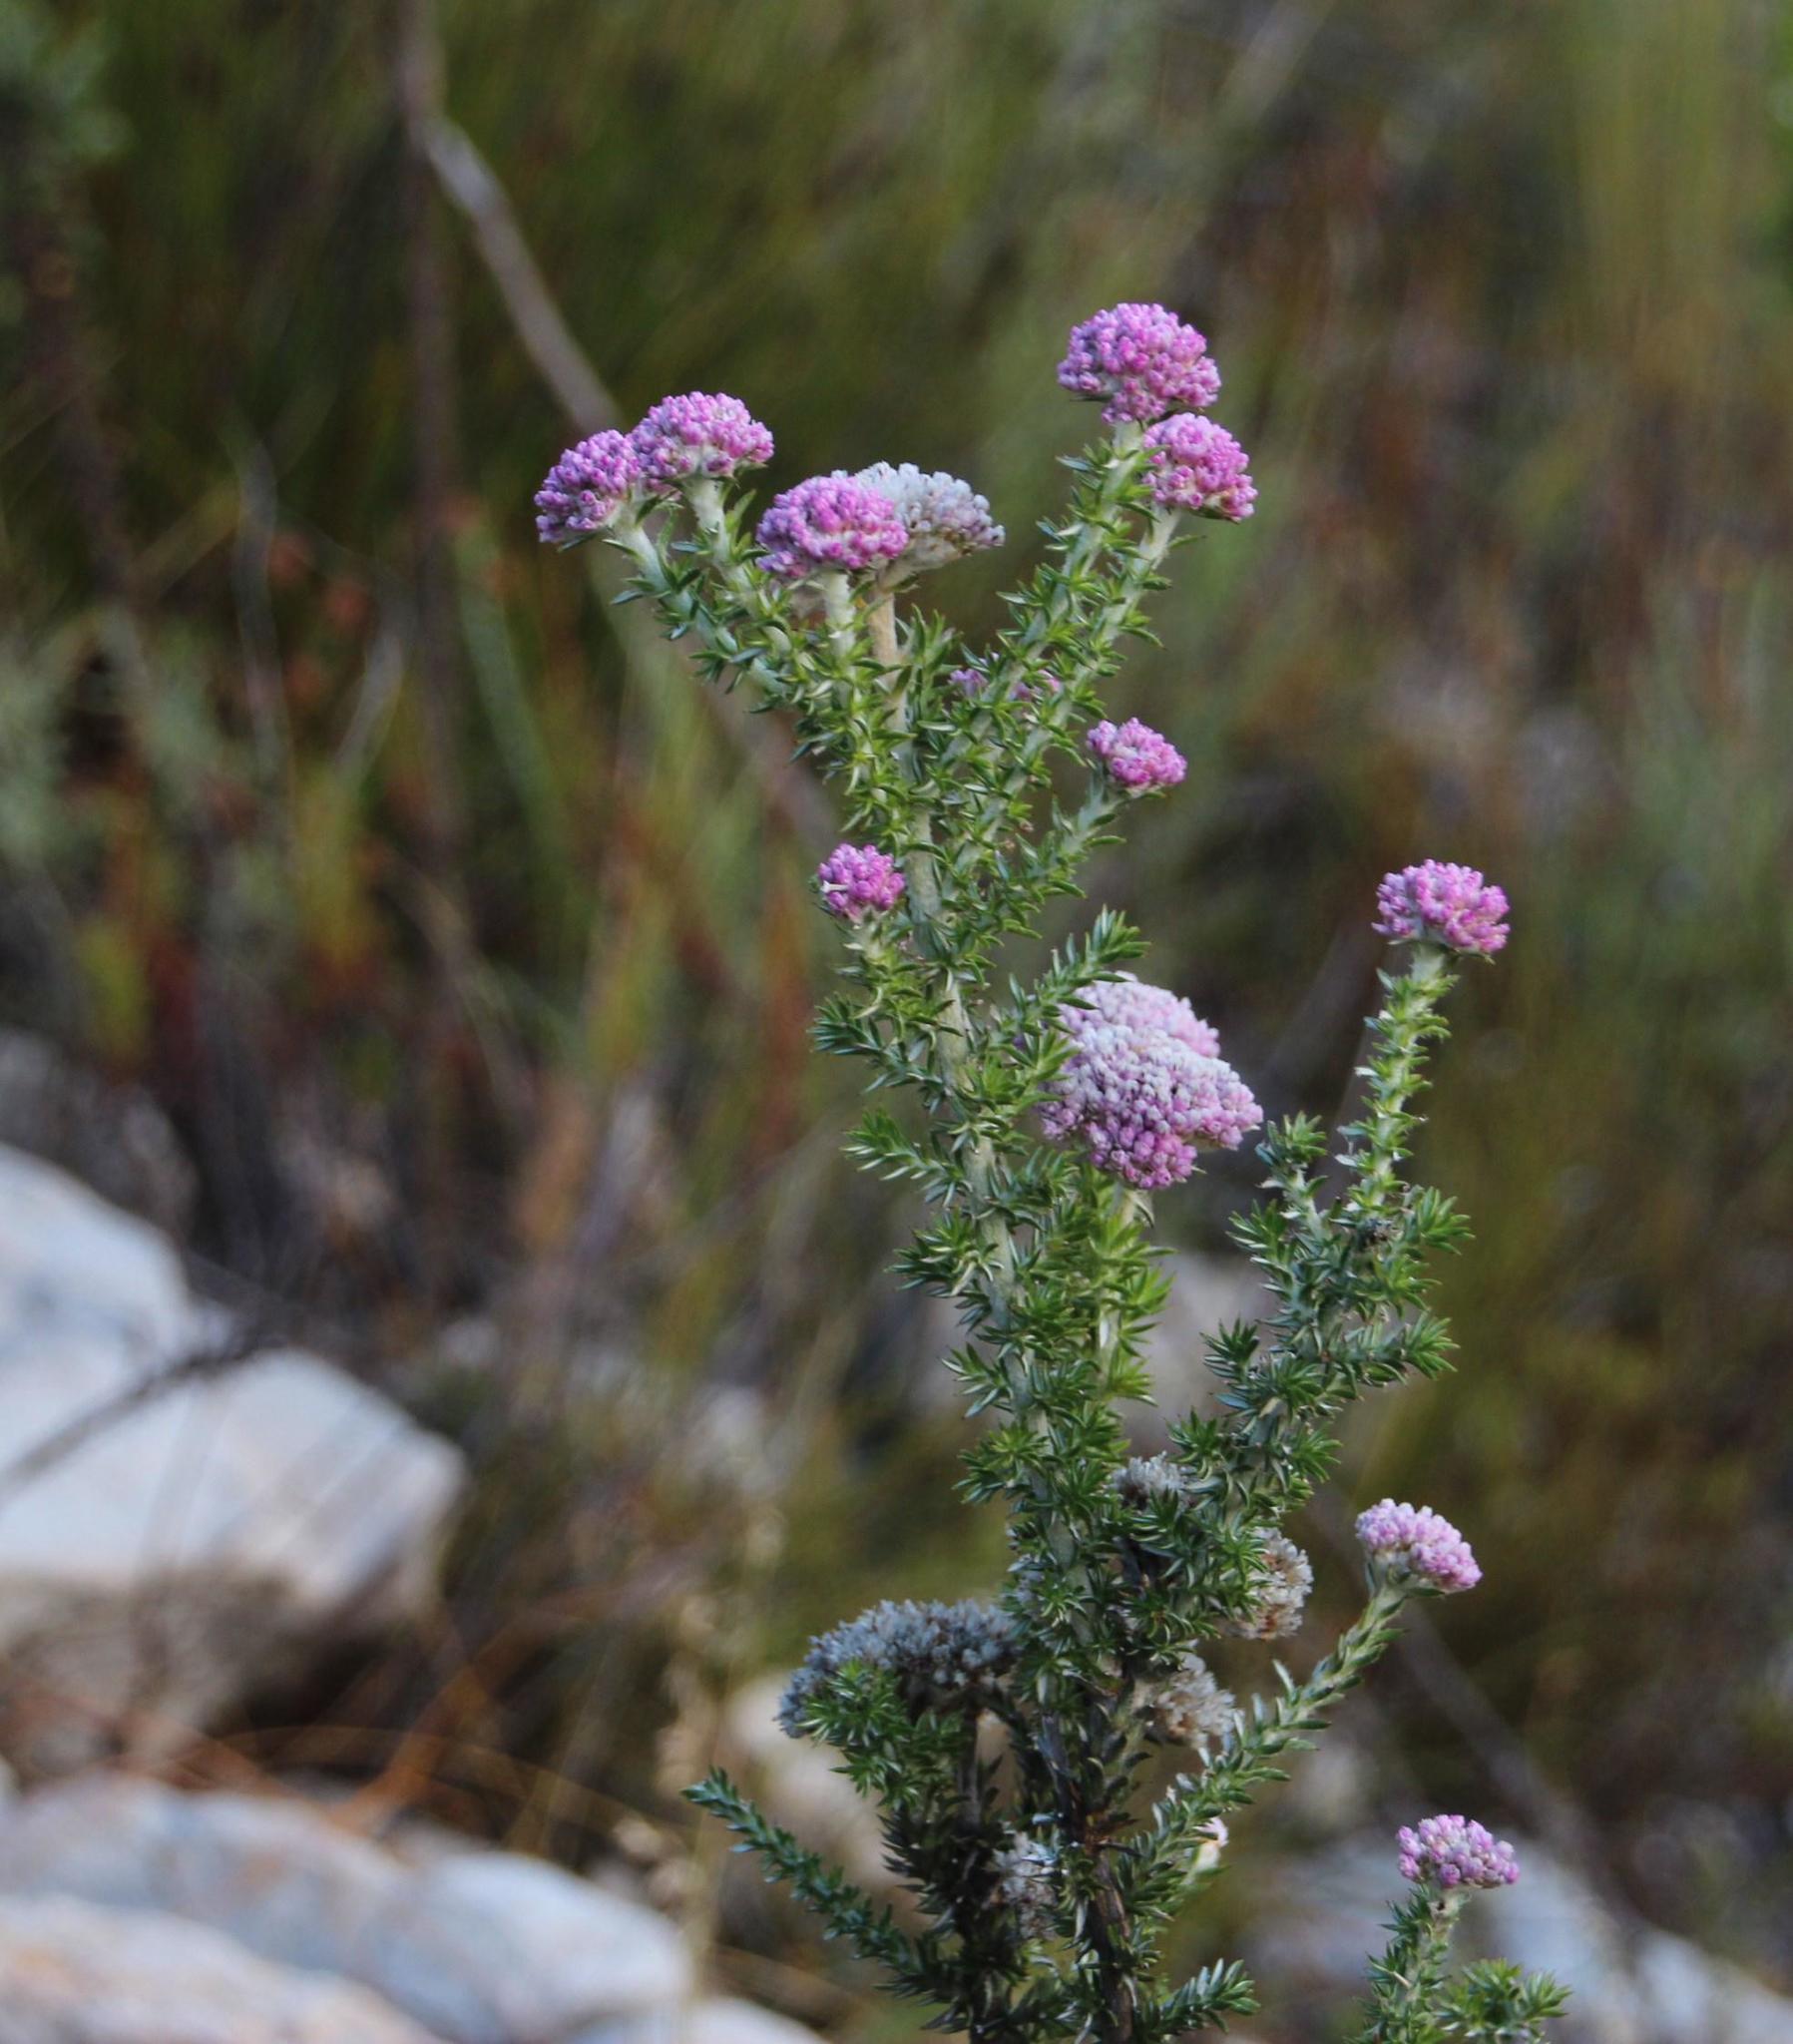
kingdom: Plantae
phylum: Tracheophyta
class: Magnoliopsida
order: Asterales
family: Asteraceae
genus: Metalasia
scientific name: Metalasia muraltiifolia
